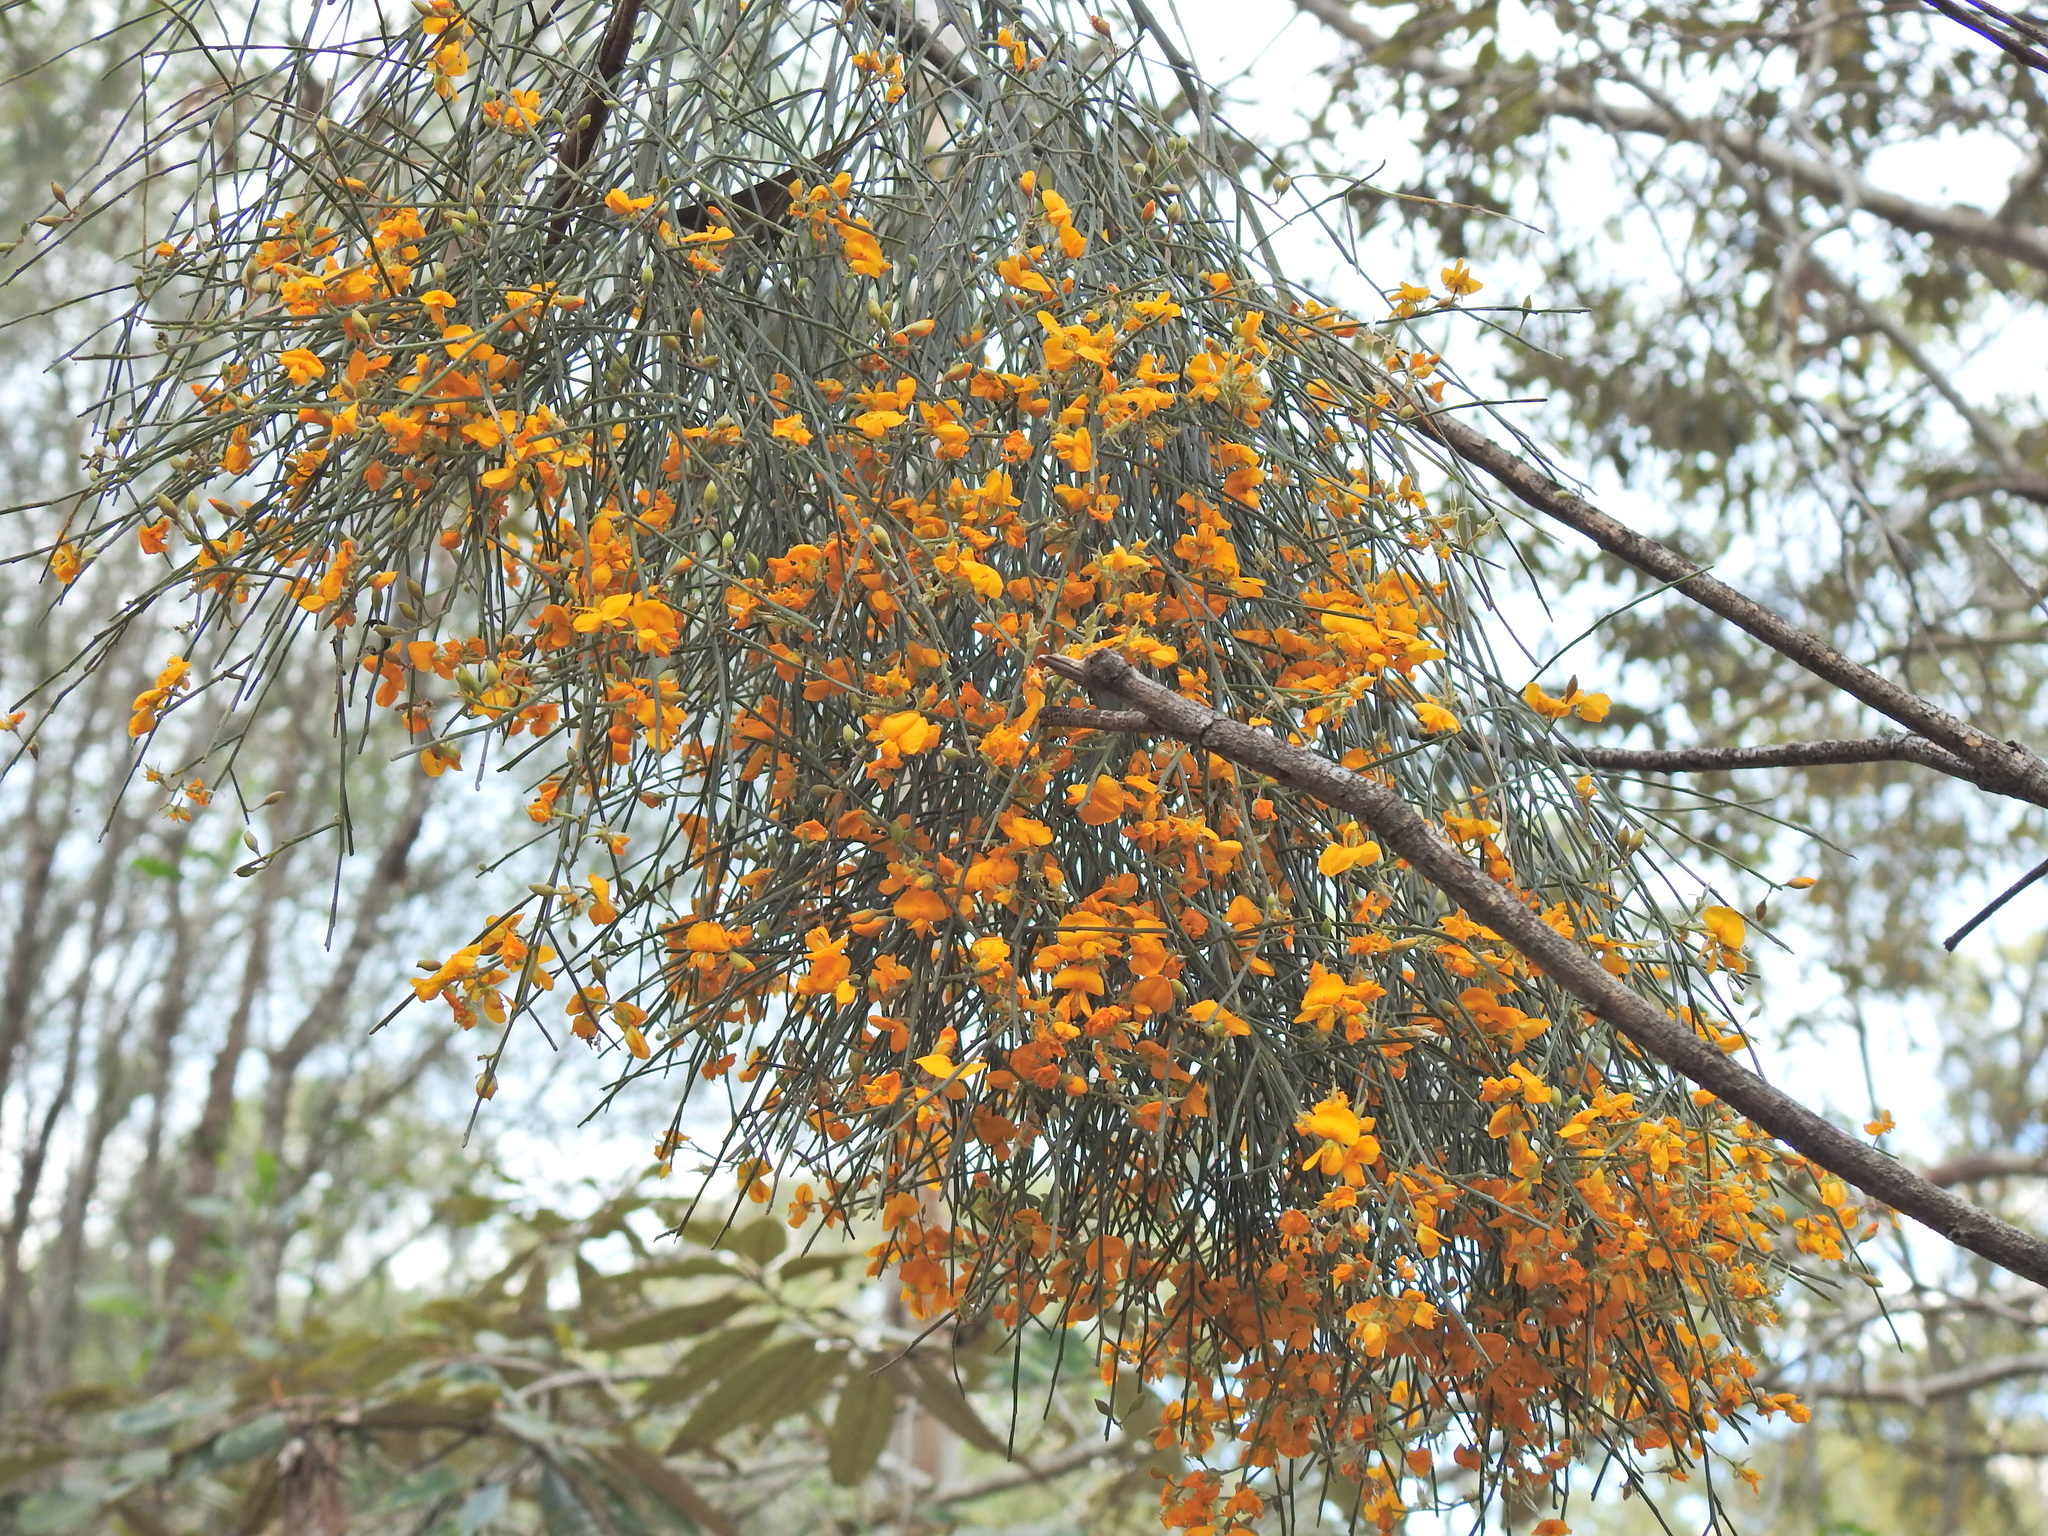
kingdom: Plantae
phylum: Tracheophyta
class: Magnoliopsida
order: Fabales
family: Fabaceae
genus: Jacksonia
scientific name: Jacksonia scoparia
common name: Dogwood
